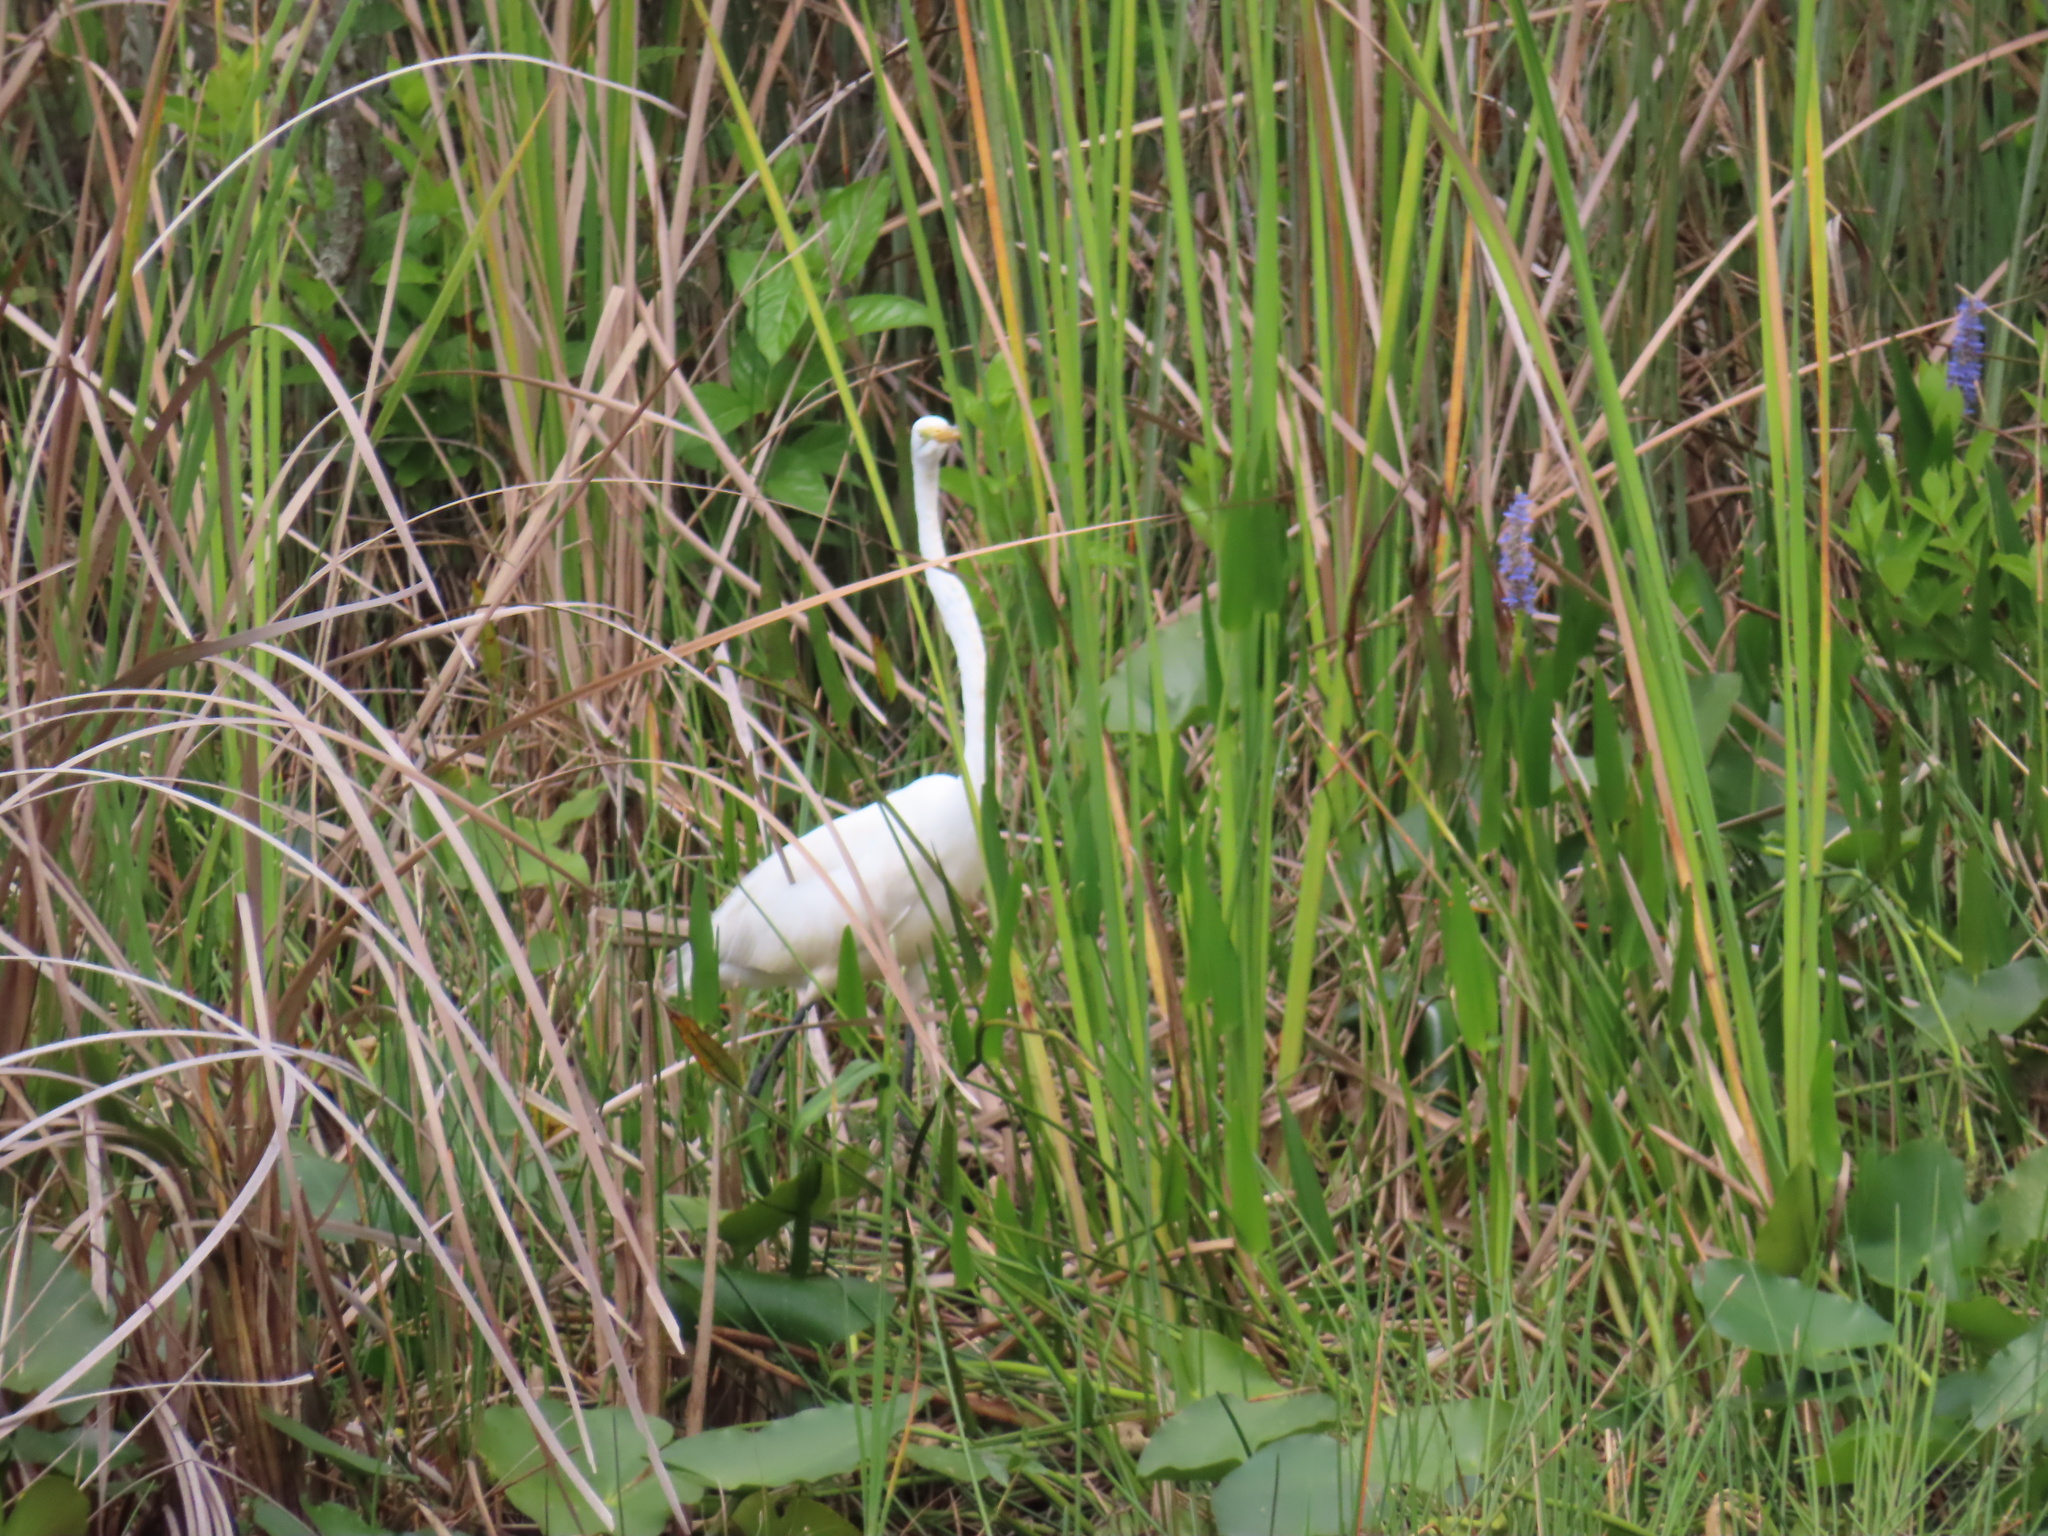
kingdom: Animalia
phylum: Chordata
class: Aves
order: Pelecaniformes
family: Ardeidae
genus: Ardea
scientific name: Ardea alba
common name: Great egret
